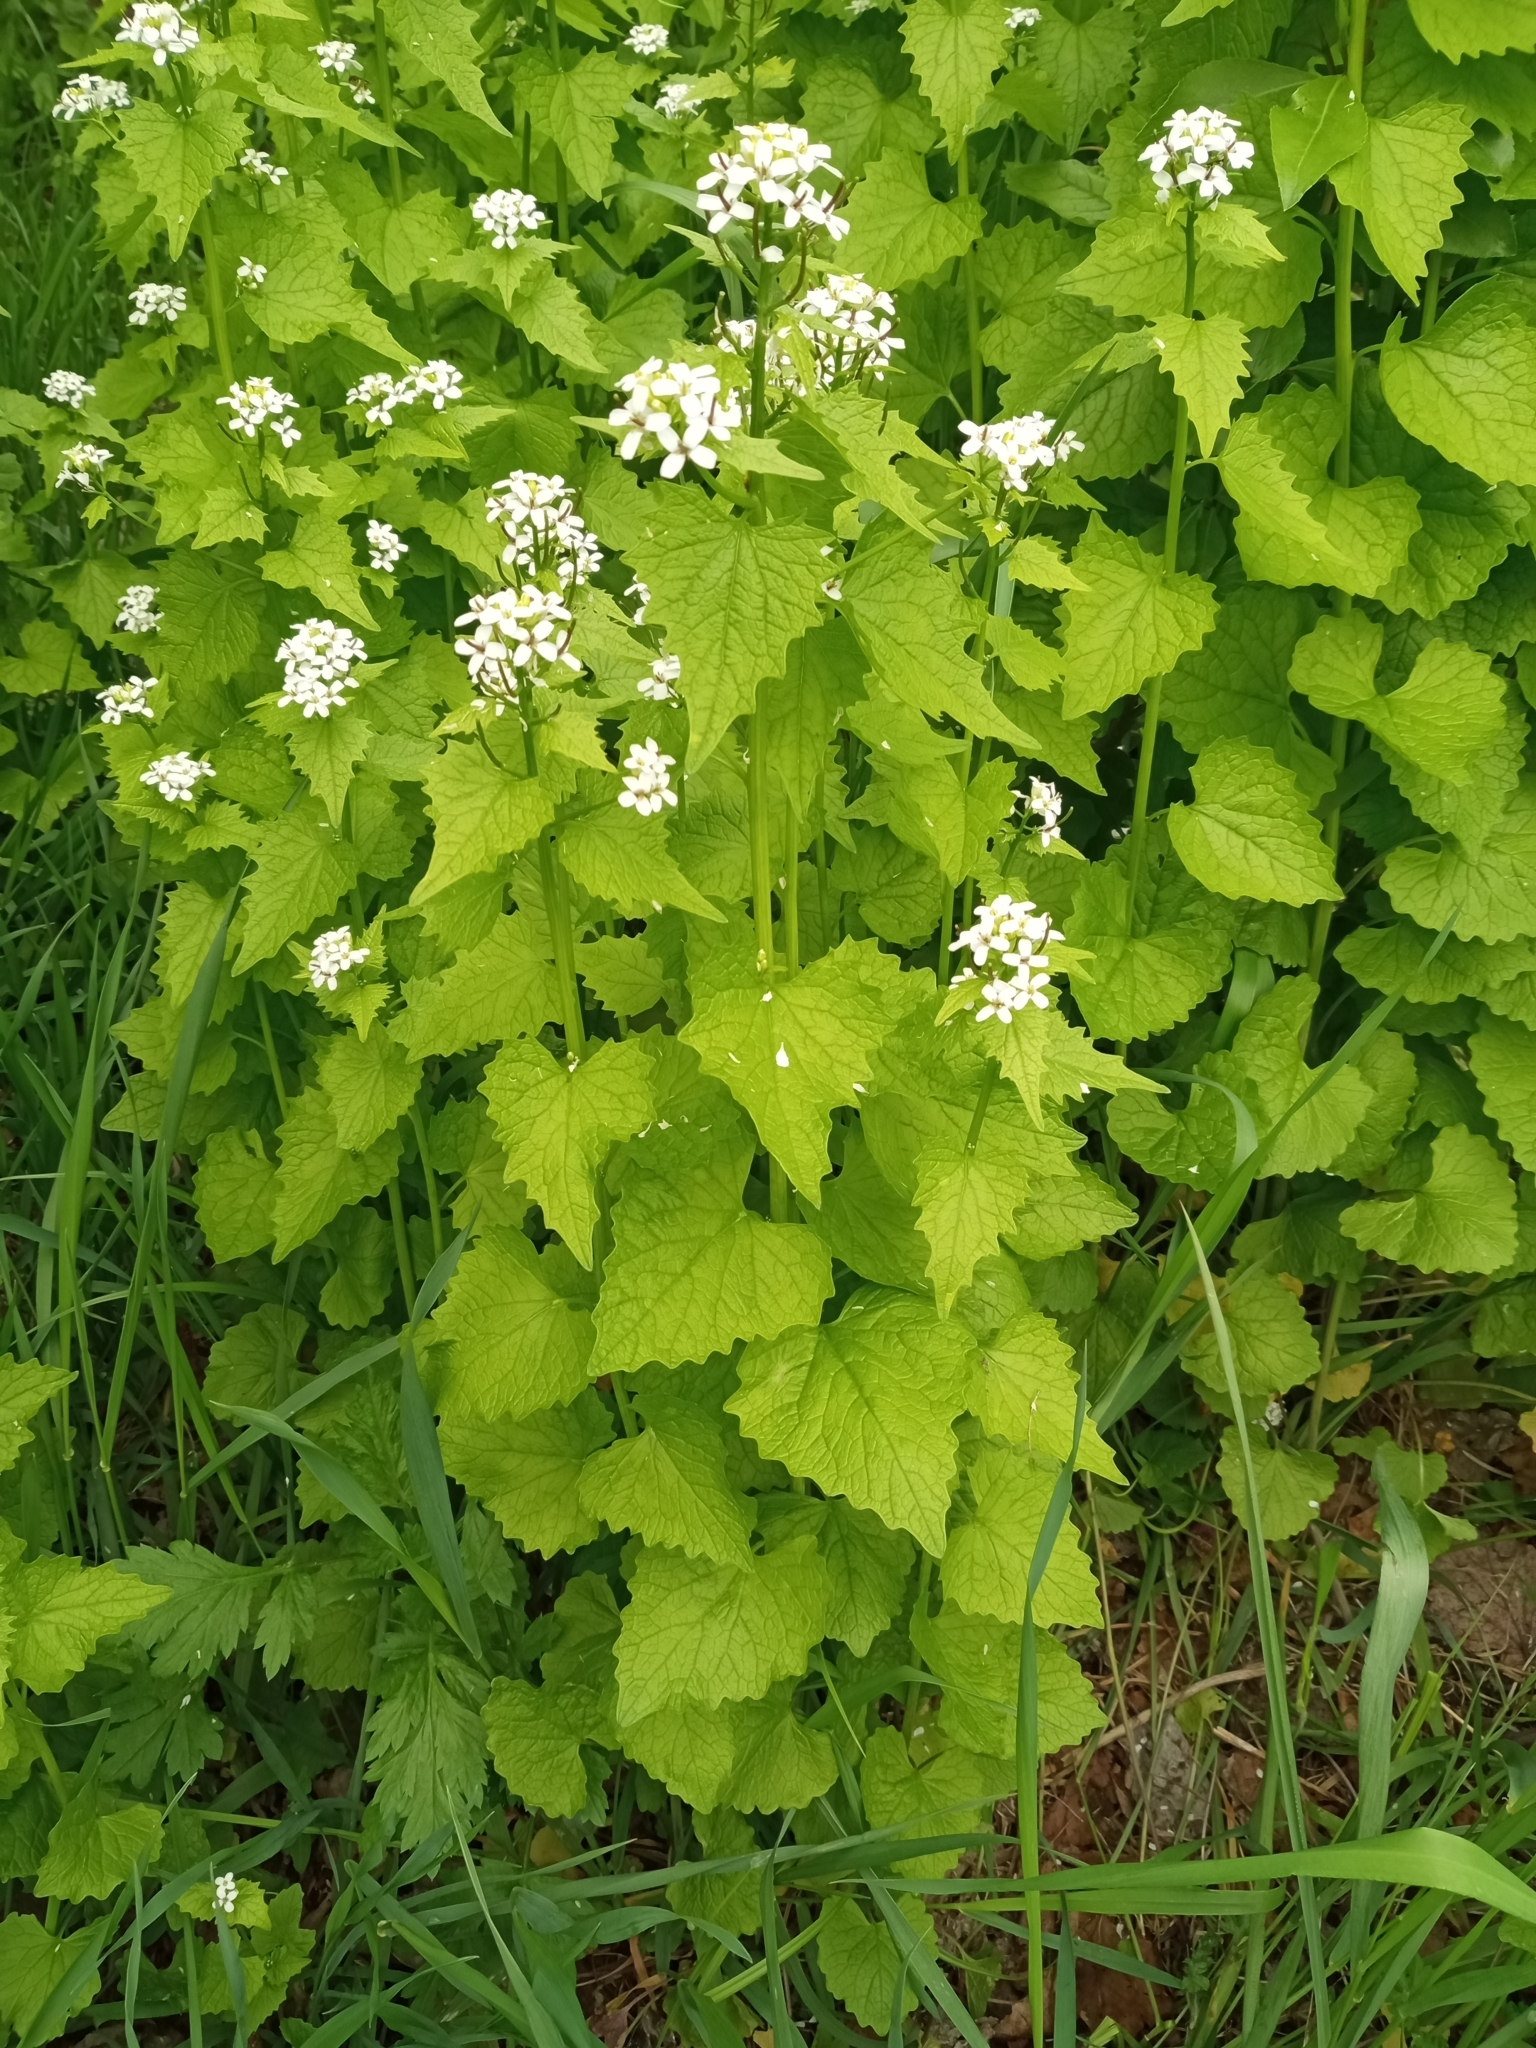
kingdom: Plantae
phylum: Tracheophyta
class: Magnoliopsida
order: Brassicales
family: Brassicaceae
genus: Alliaria
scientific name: Alliaria petiolata
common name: Garlic mustard
